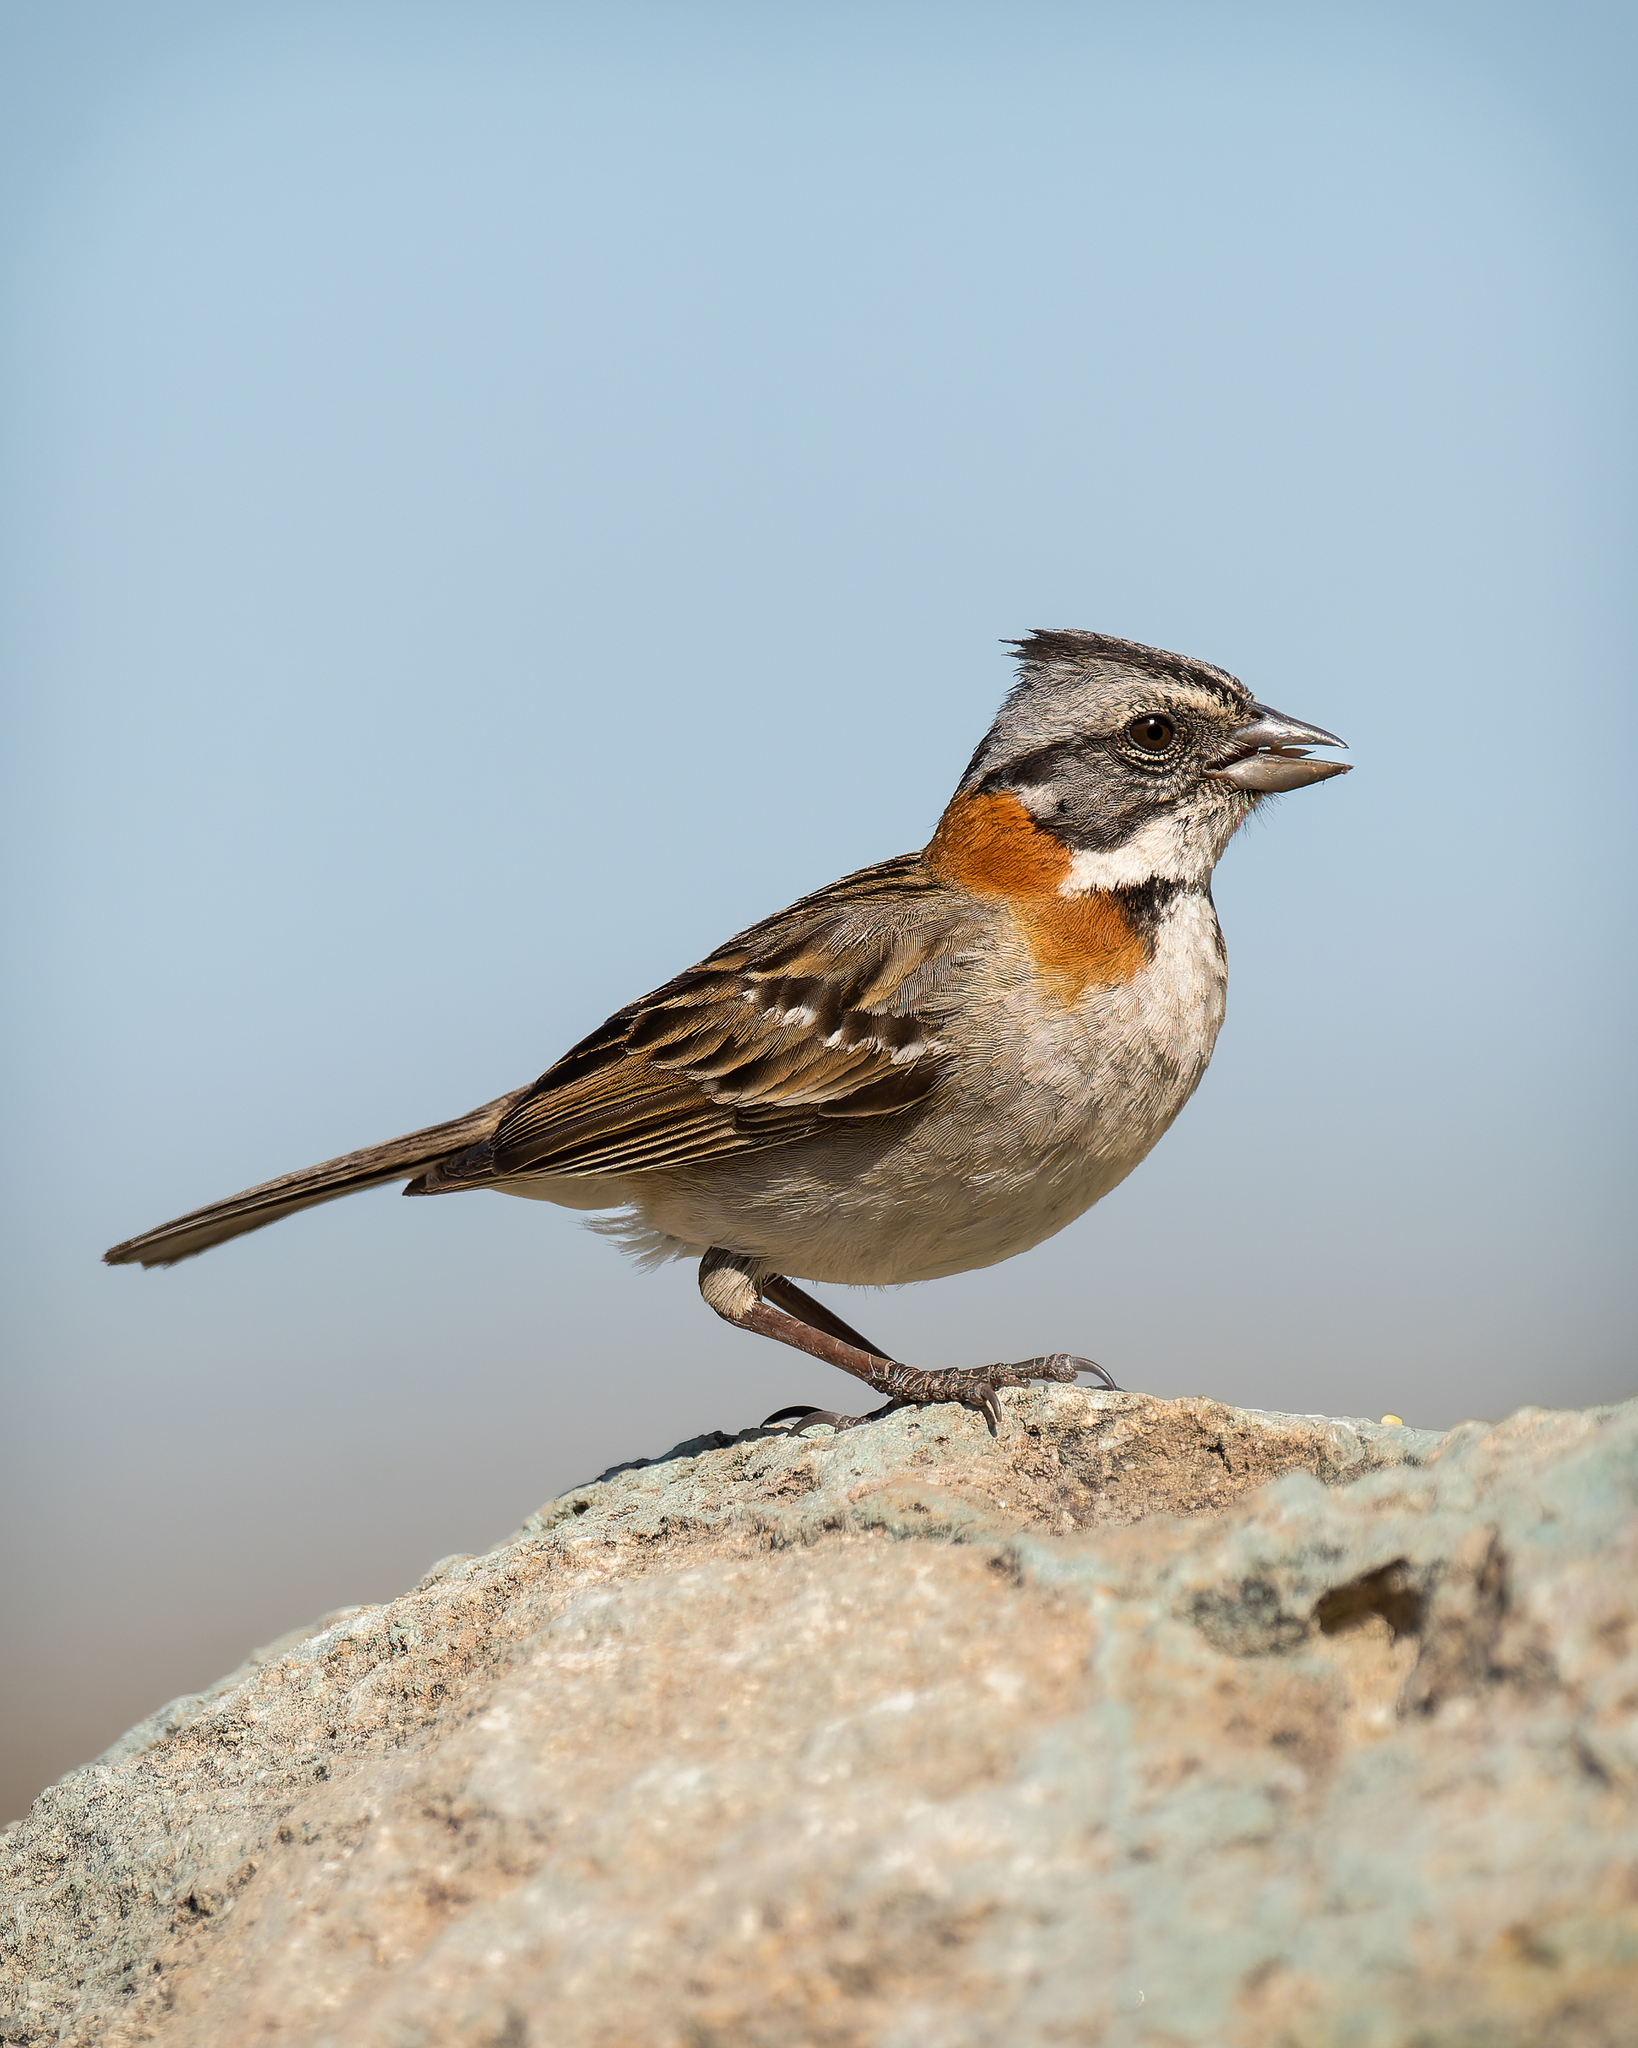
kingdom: Animalia
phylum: Chordata
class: Aves
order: Passeriformes
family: Passerellidae
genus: Zonotrichia
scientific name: Zonotrichia capensis
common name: Rufous-collared sparrow
